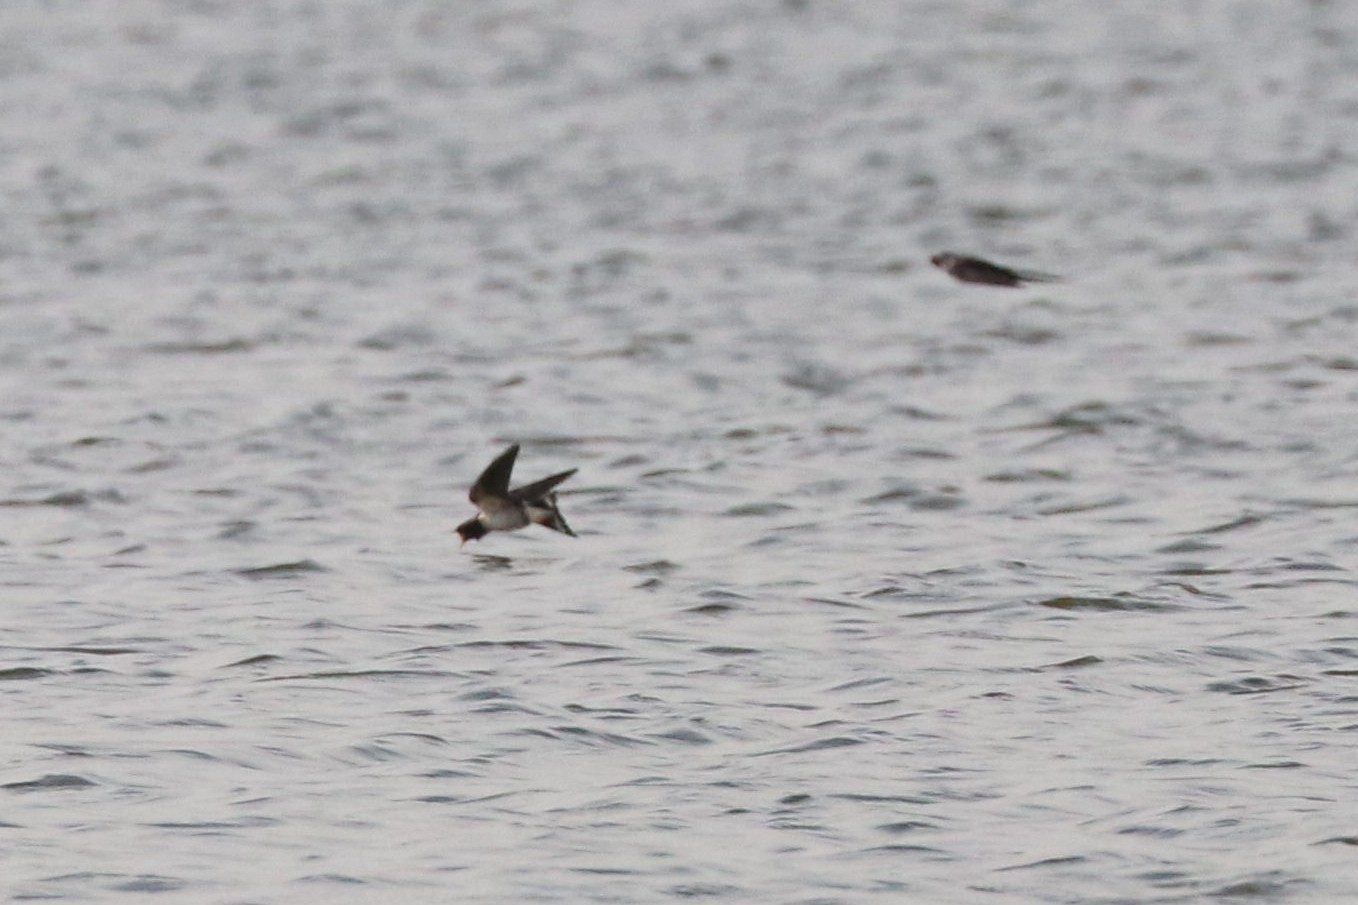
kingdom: Animalia
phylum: Chordata
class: Aves
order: Passeriformes
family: Hirundinidae
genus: Hirundo
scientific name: Hirundo rustica
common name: Barn swallow
